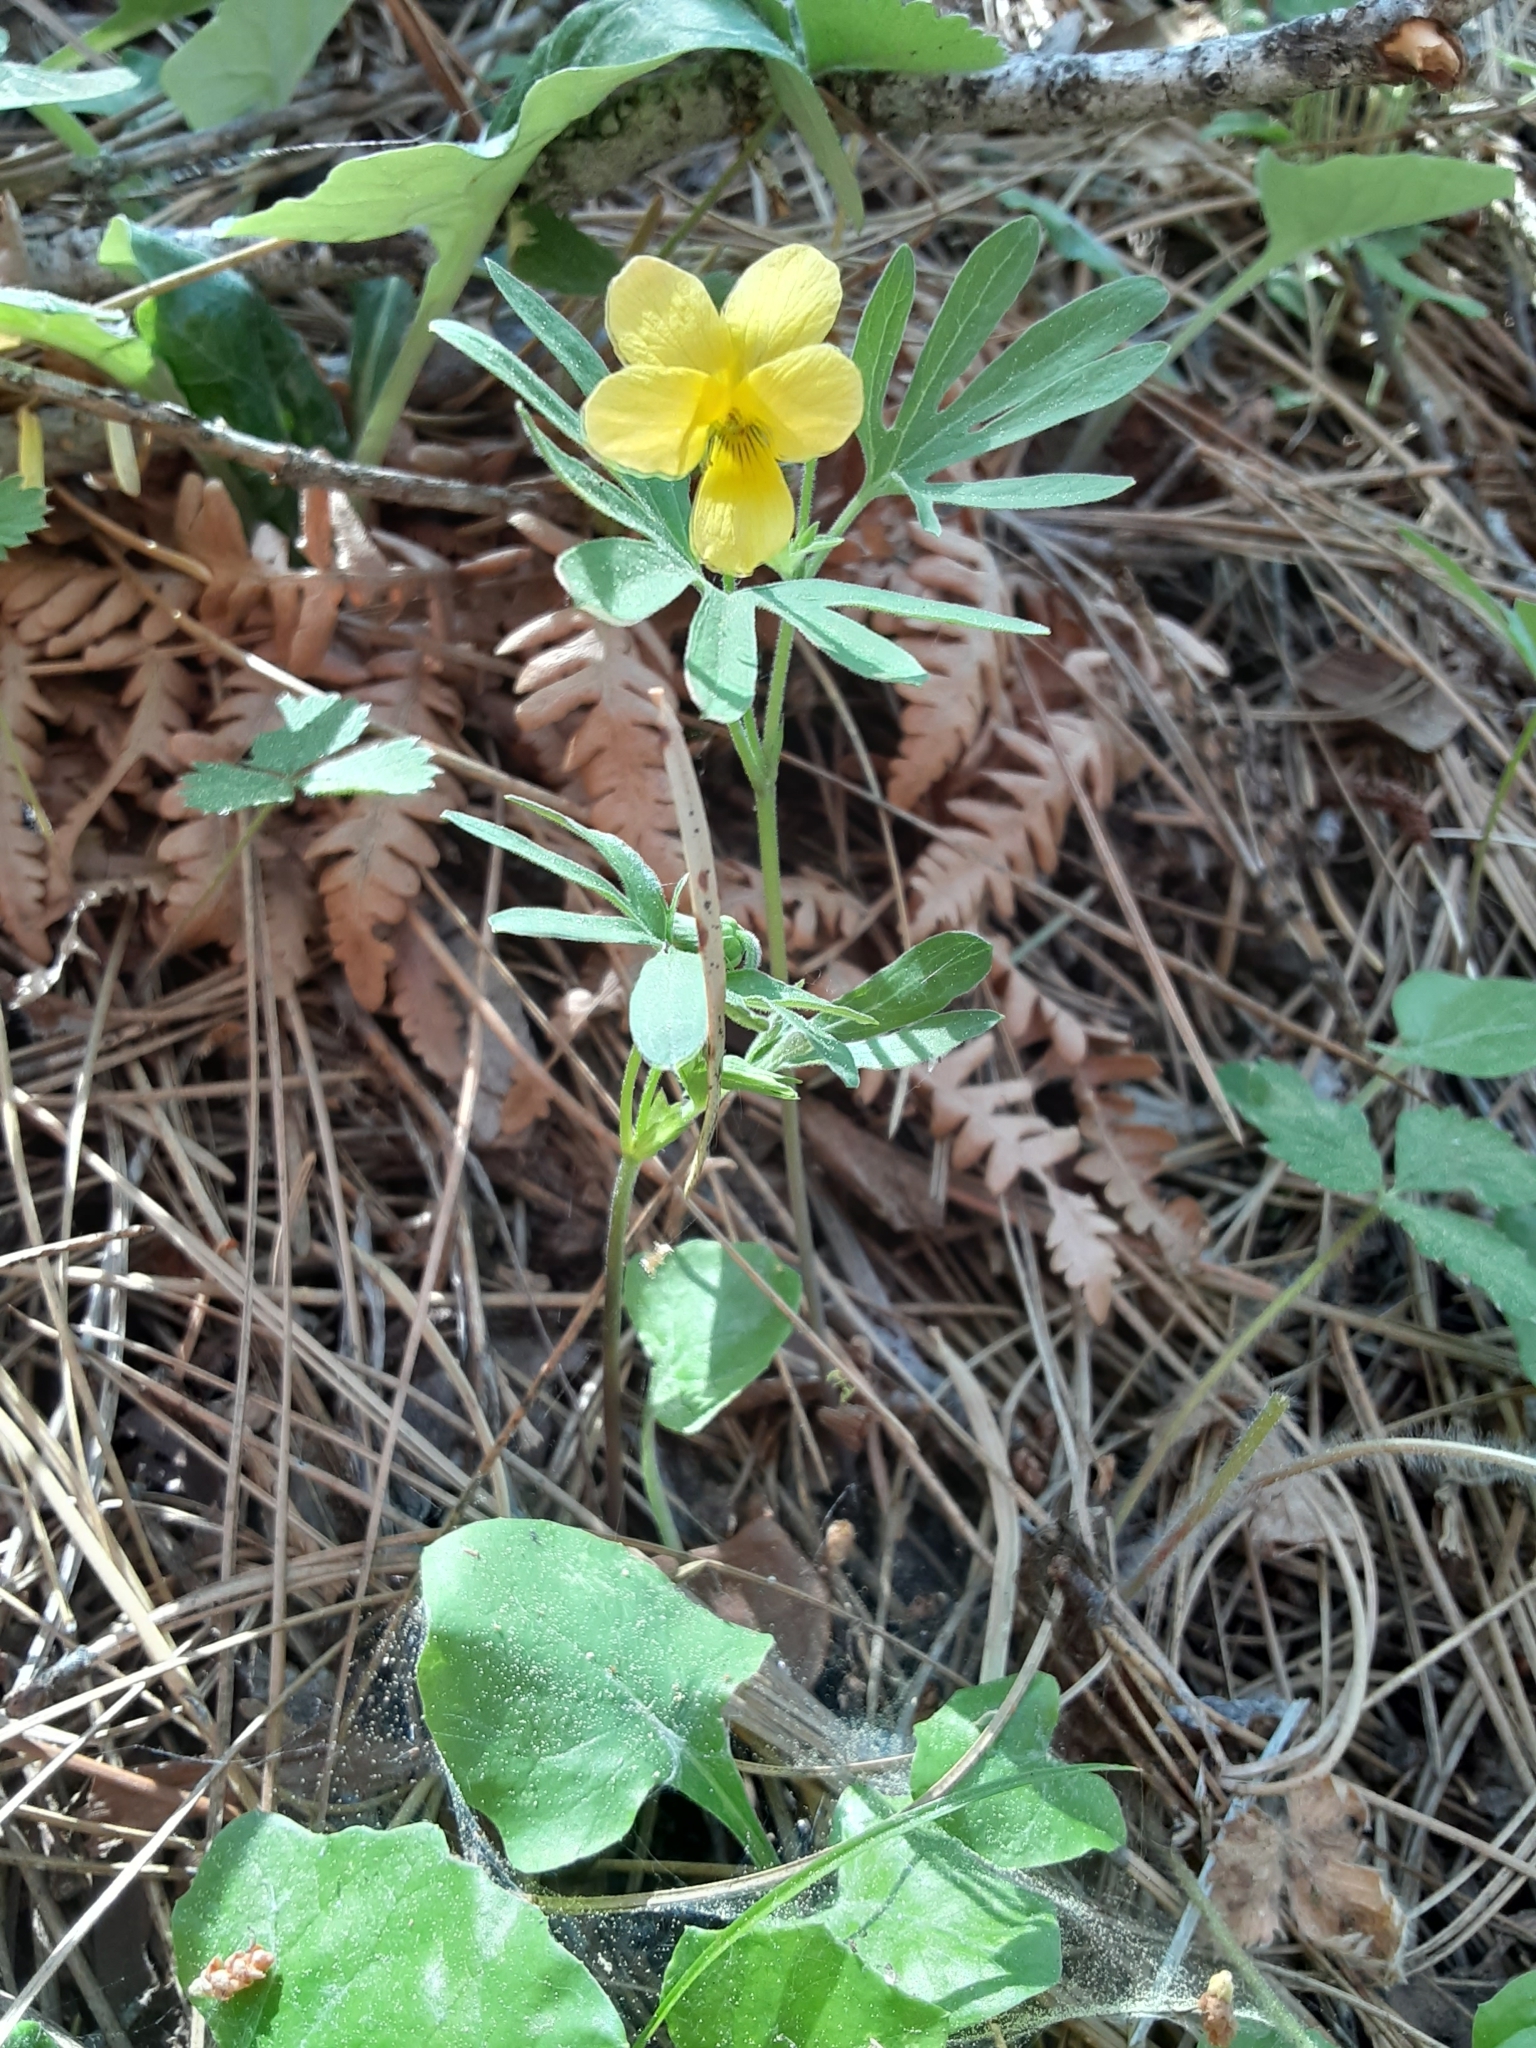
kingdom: Plantae
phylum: Tracheophyta
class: Magnoliopsida
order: Malpighiales
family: Violaceae
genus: Viola
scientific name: Viola lobata
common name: Pine violet
